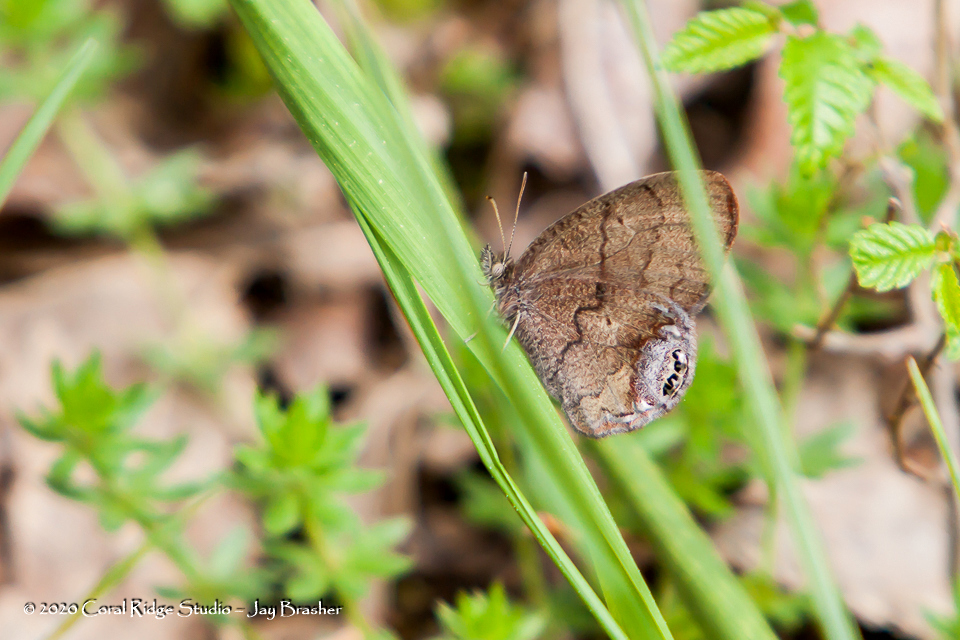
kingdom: Animalia
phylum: Arthropoda
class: Insecta
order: Lepidoptera
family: Nymphalidae
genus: Euptychia
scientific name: Euptychia cornelius
